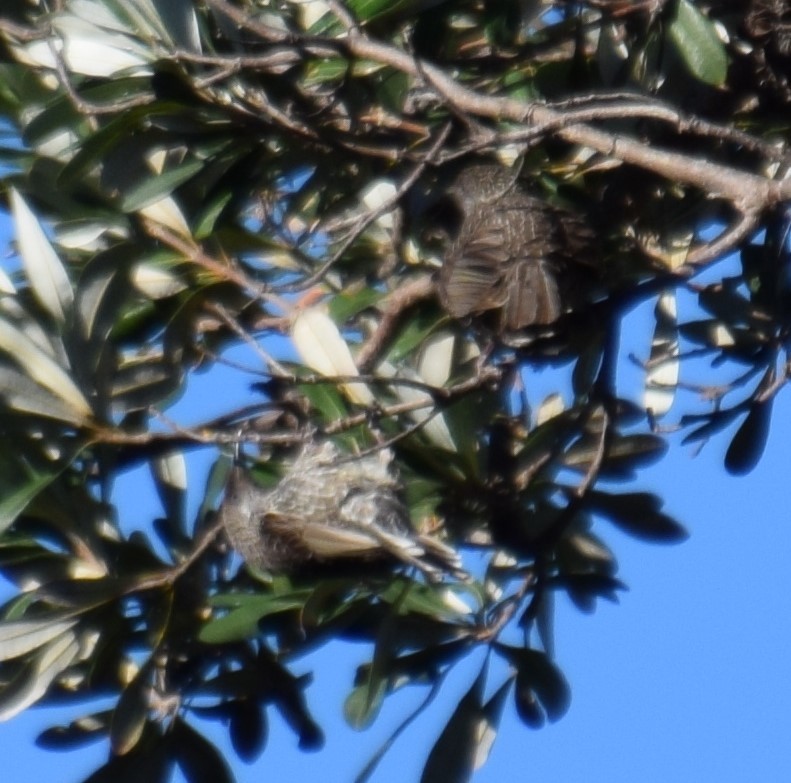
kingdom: Animalia
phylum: Chordata
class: Aves
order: Passeriformes
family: Meliphagidae
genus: Anthochaera
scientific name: Anthochaera chrysoptera
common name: Little wattlebird
